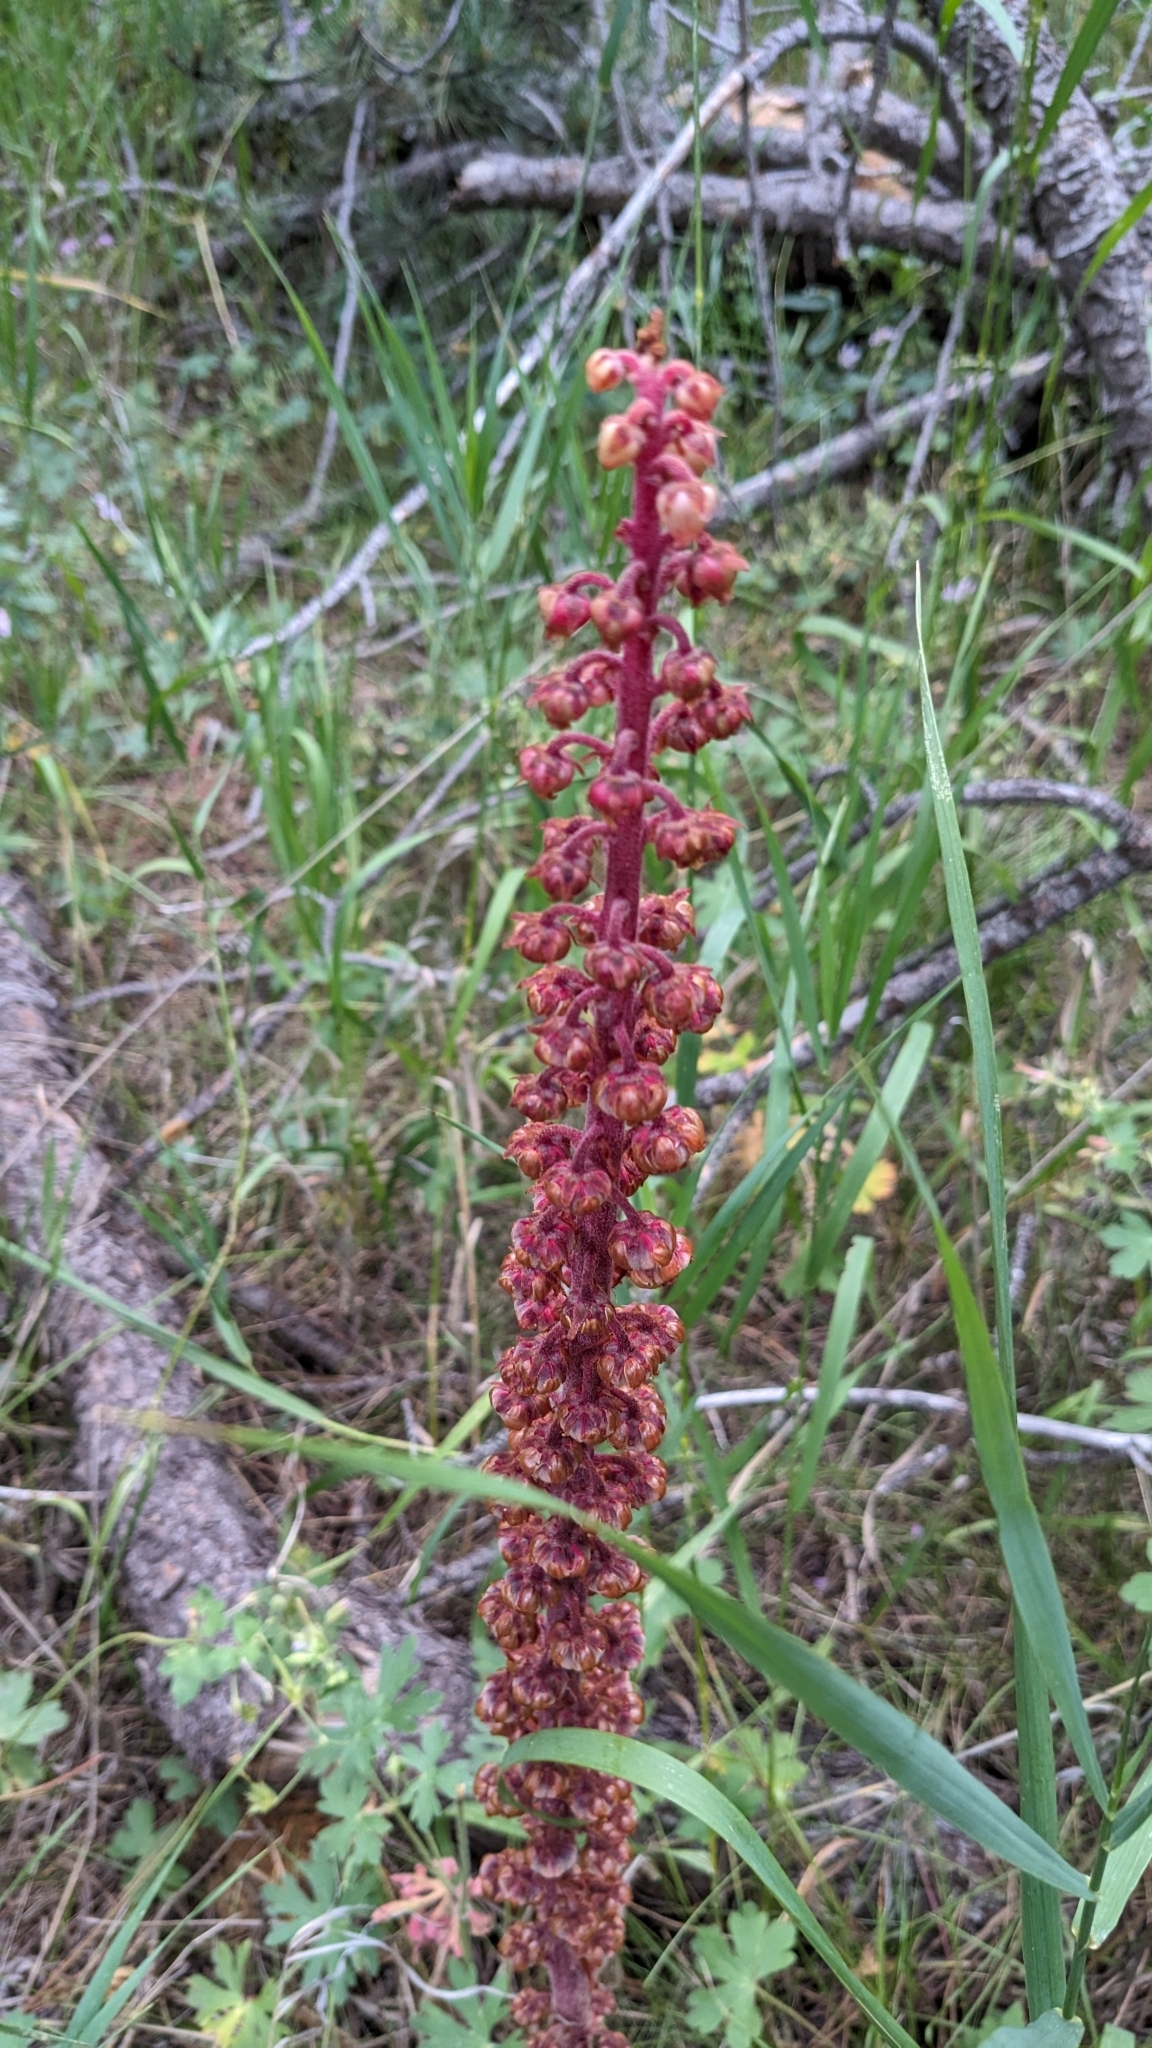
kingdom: Plantae
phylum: Tracheophyta
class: Magnoliopsida
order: Ericales
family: Ericaceae
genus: Pterospora
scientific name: Pterospora andromedea
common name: Giant bird's-nest
